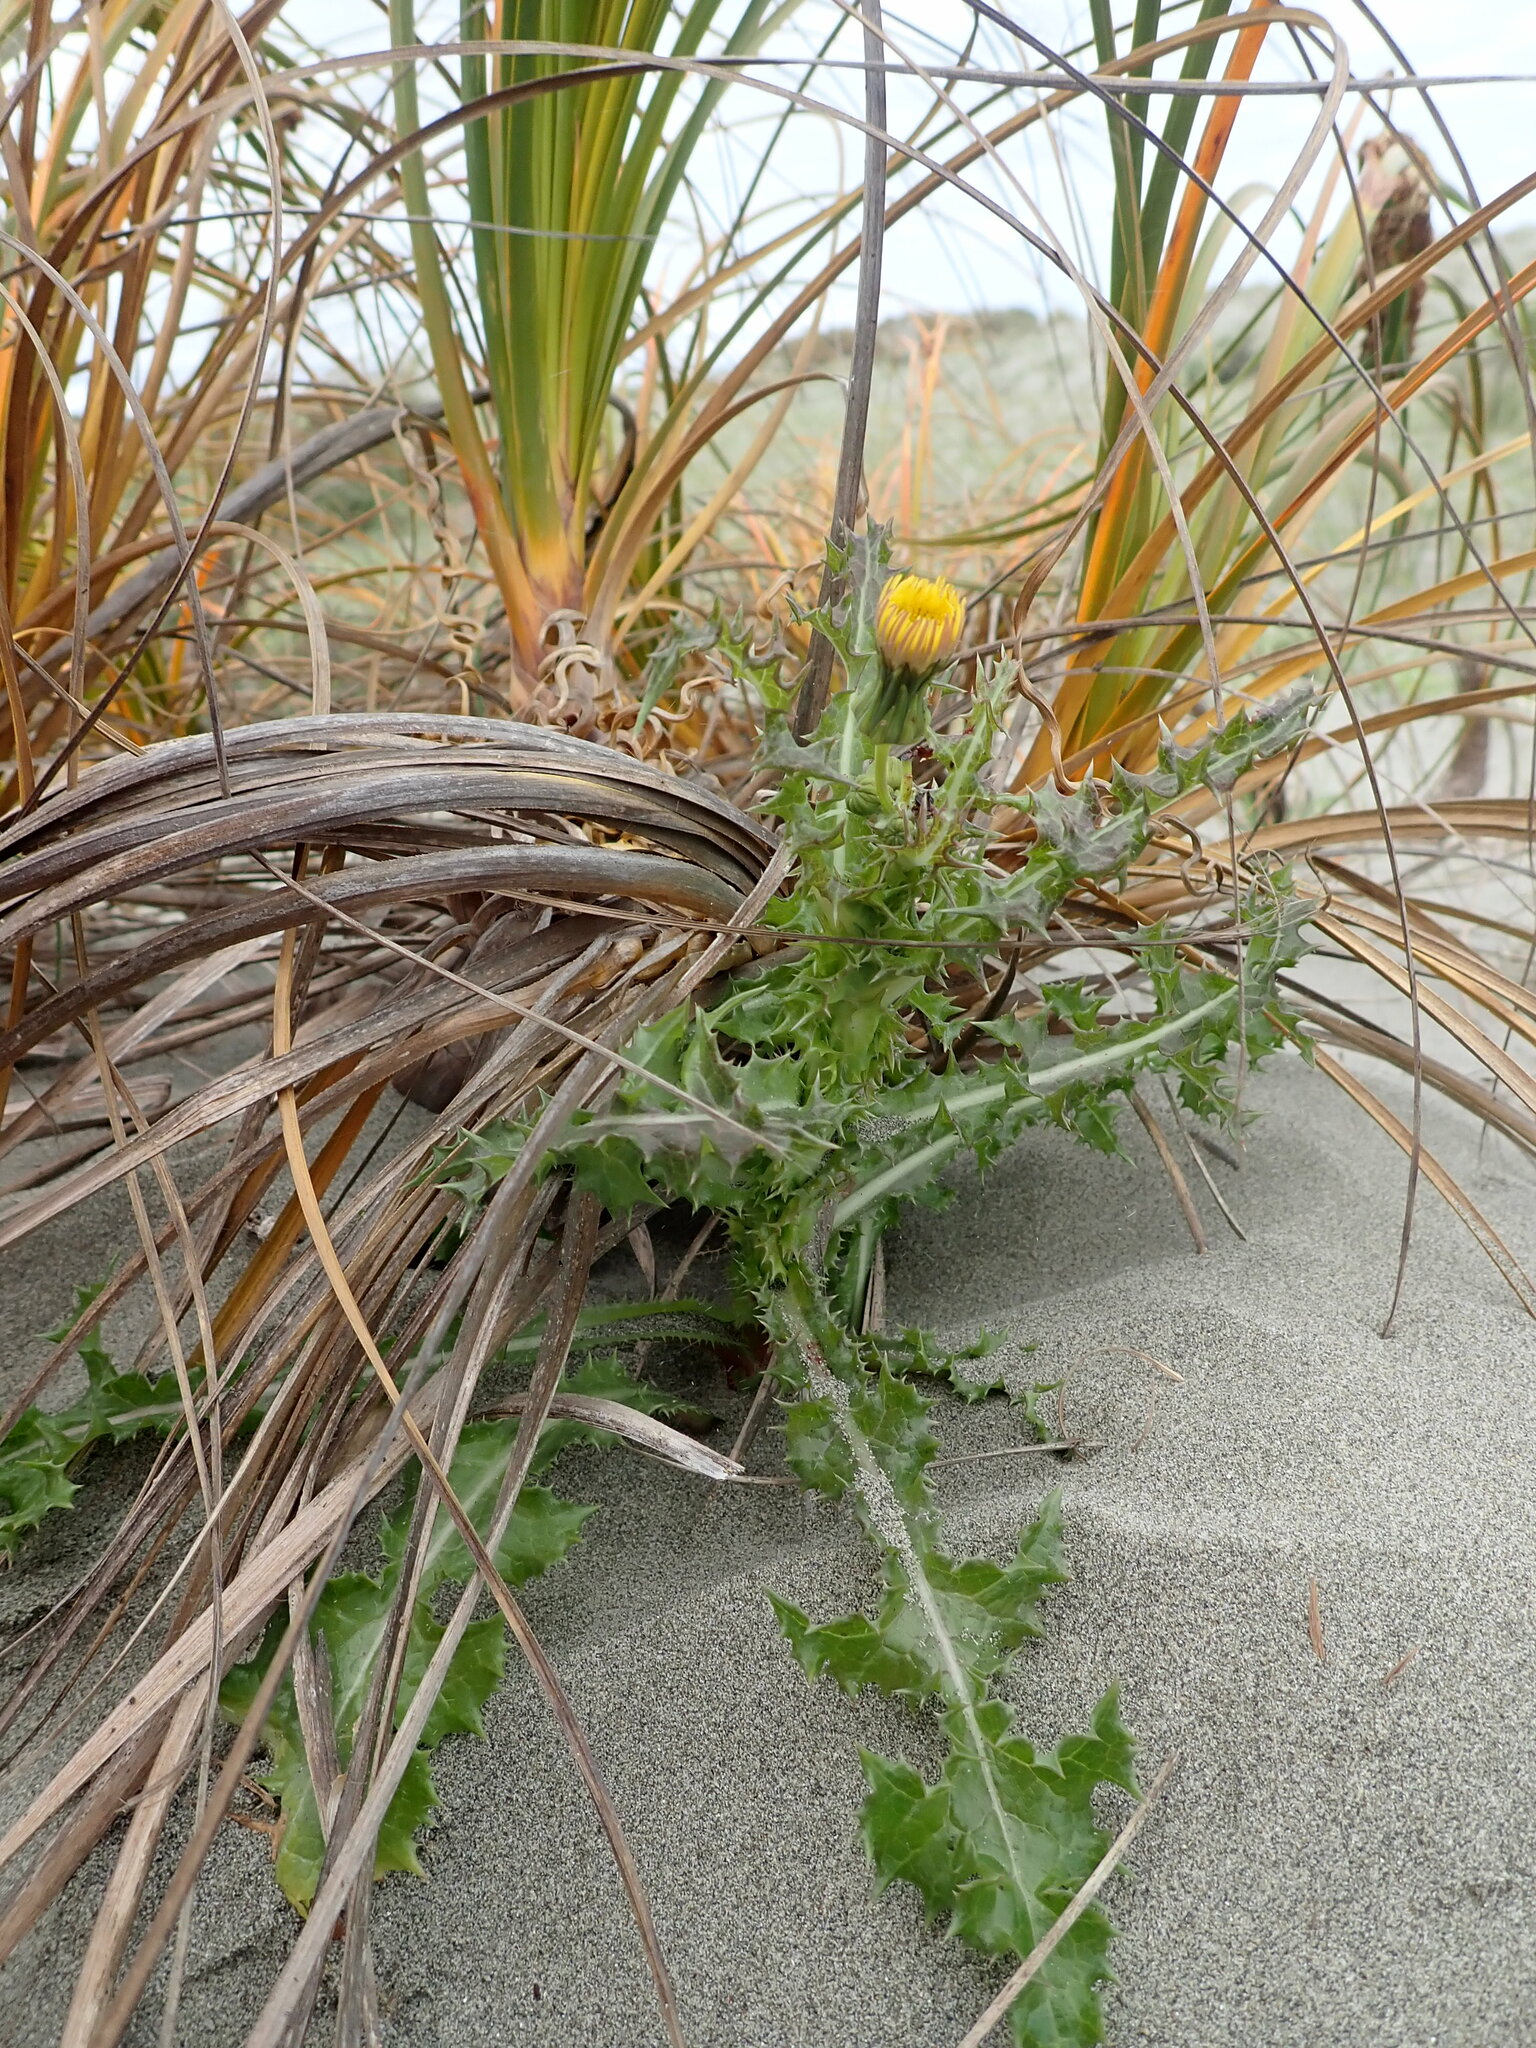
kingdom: Plantae
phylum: Tracheophyta
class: Magnoliopsida
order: Asterales
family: Asteraceae
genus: Sonchus
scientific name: Sonchus asper
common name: Prickly sow-thistle
